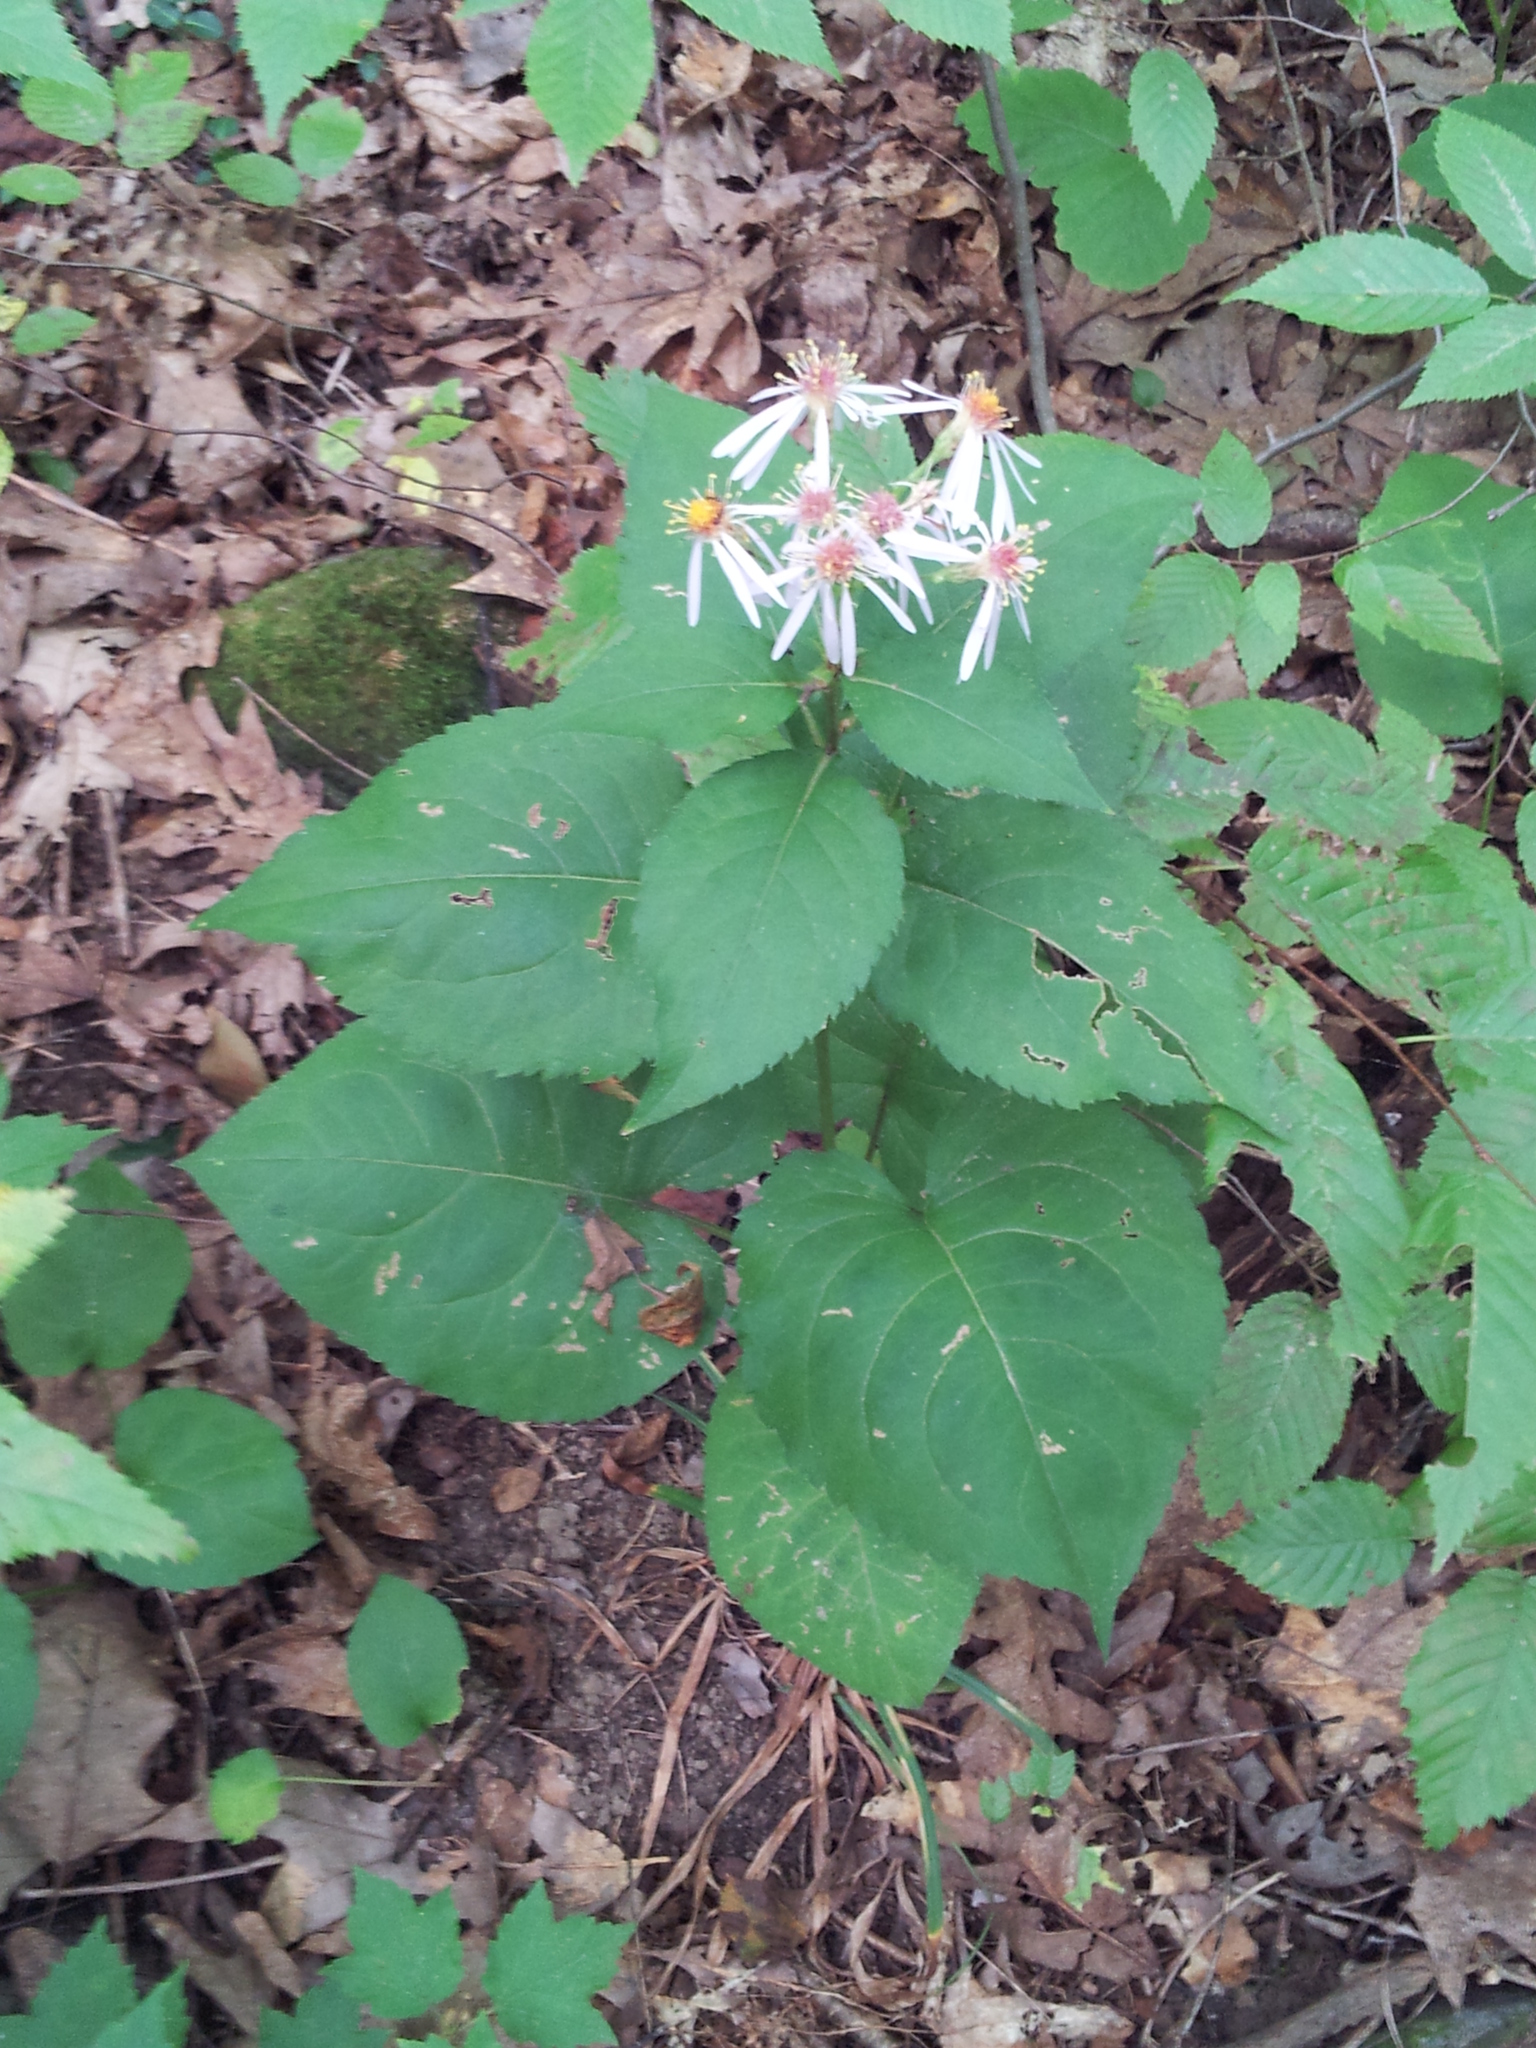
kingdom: Plantae
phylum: Tracheophyta
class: Magnoliopsida
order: Asterales
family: Asteraceae
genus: Eurybia
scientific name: Eurybia macrophylla
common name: Big-leaved aster
